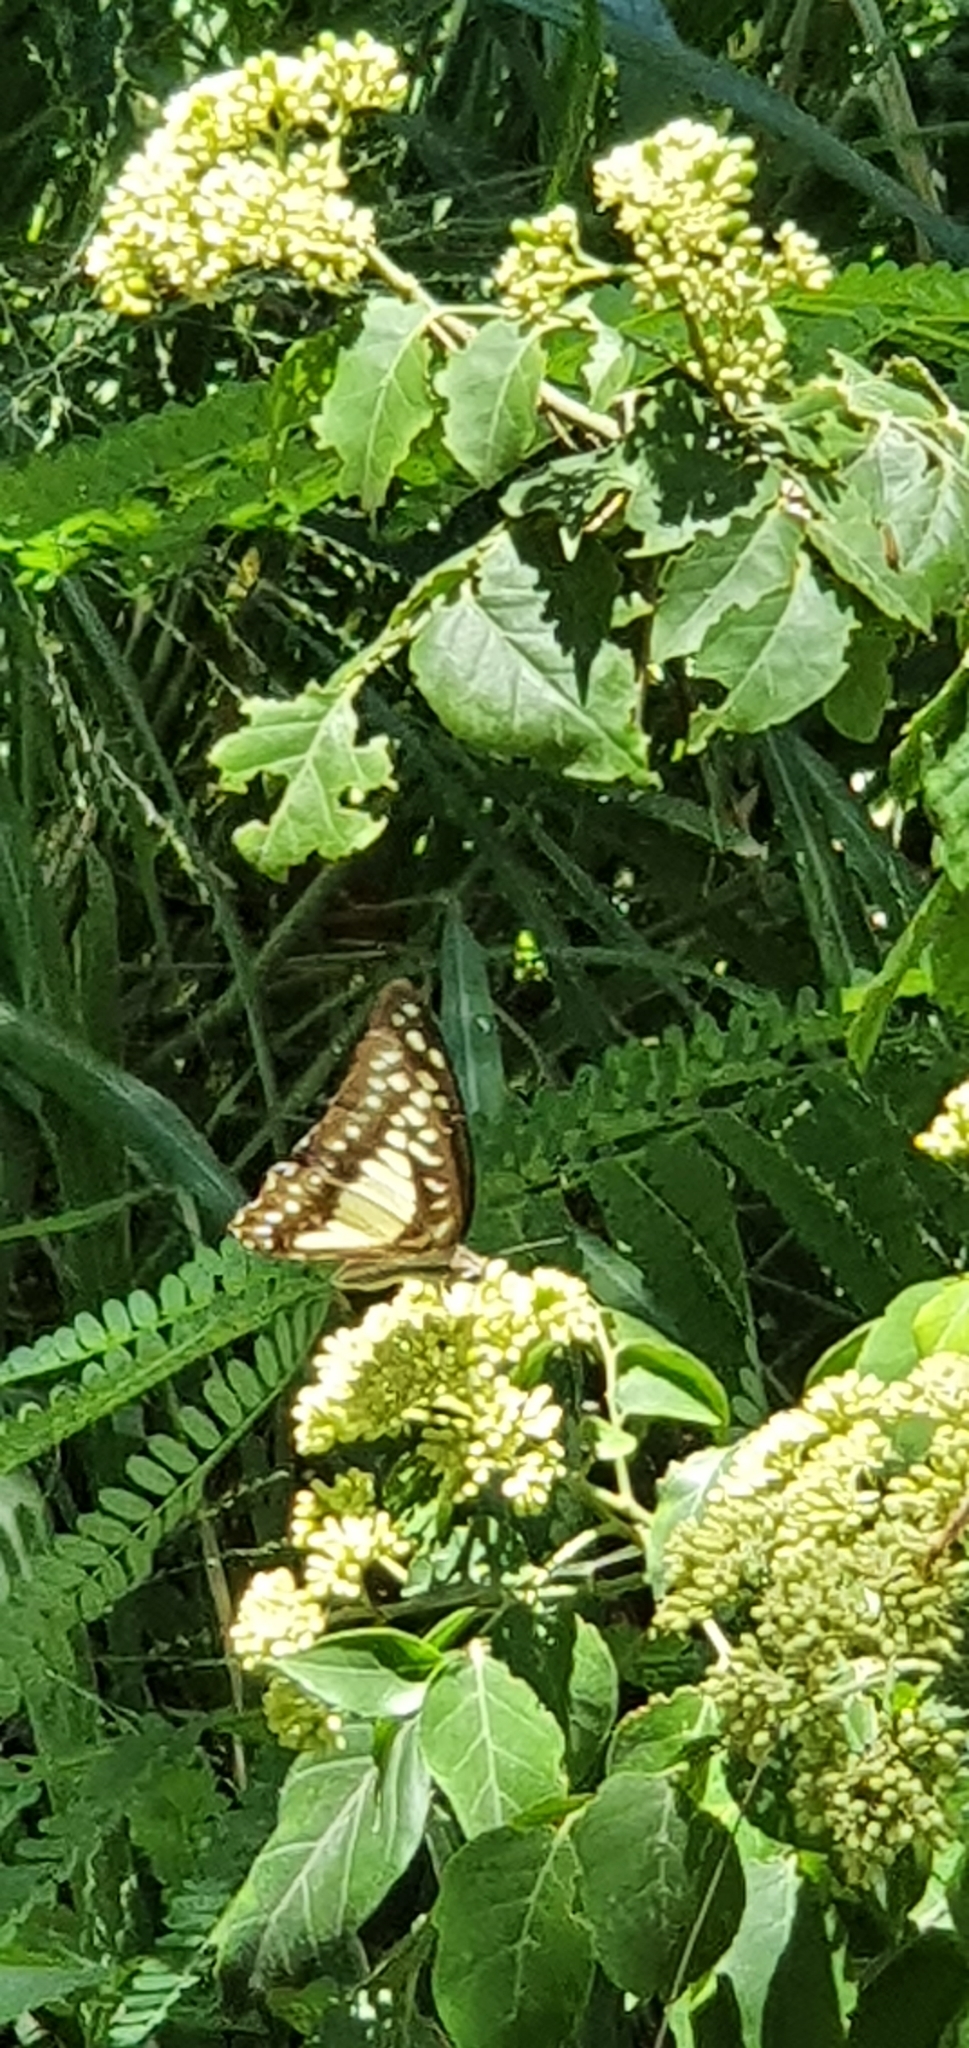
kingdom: Animalia
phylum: Arthropoda
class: Insecta
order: Lepidoptera
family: Papilionidae
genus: Graphium
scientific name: Graphium eurypylus
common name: Great jay
